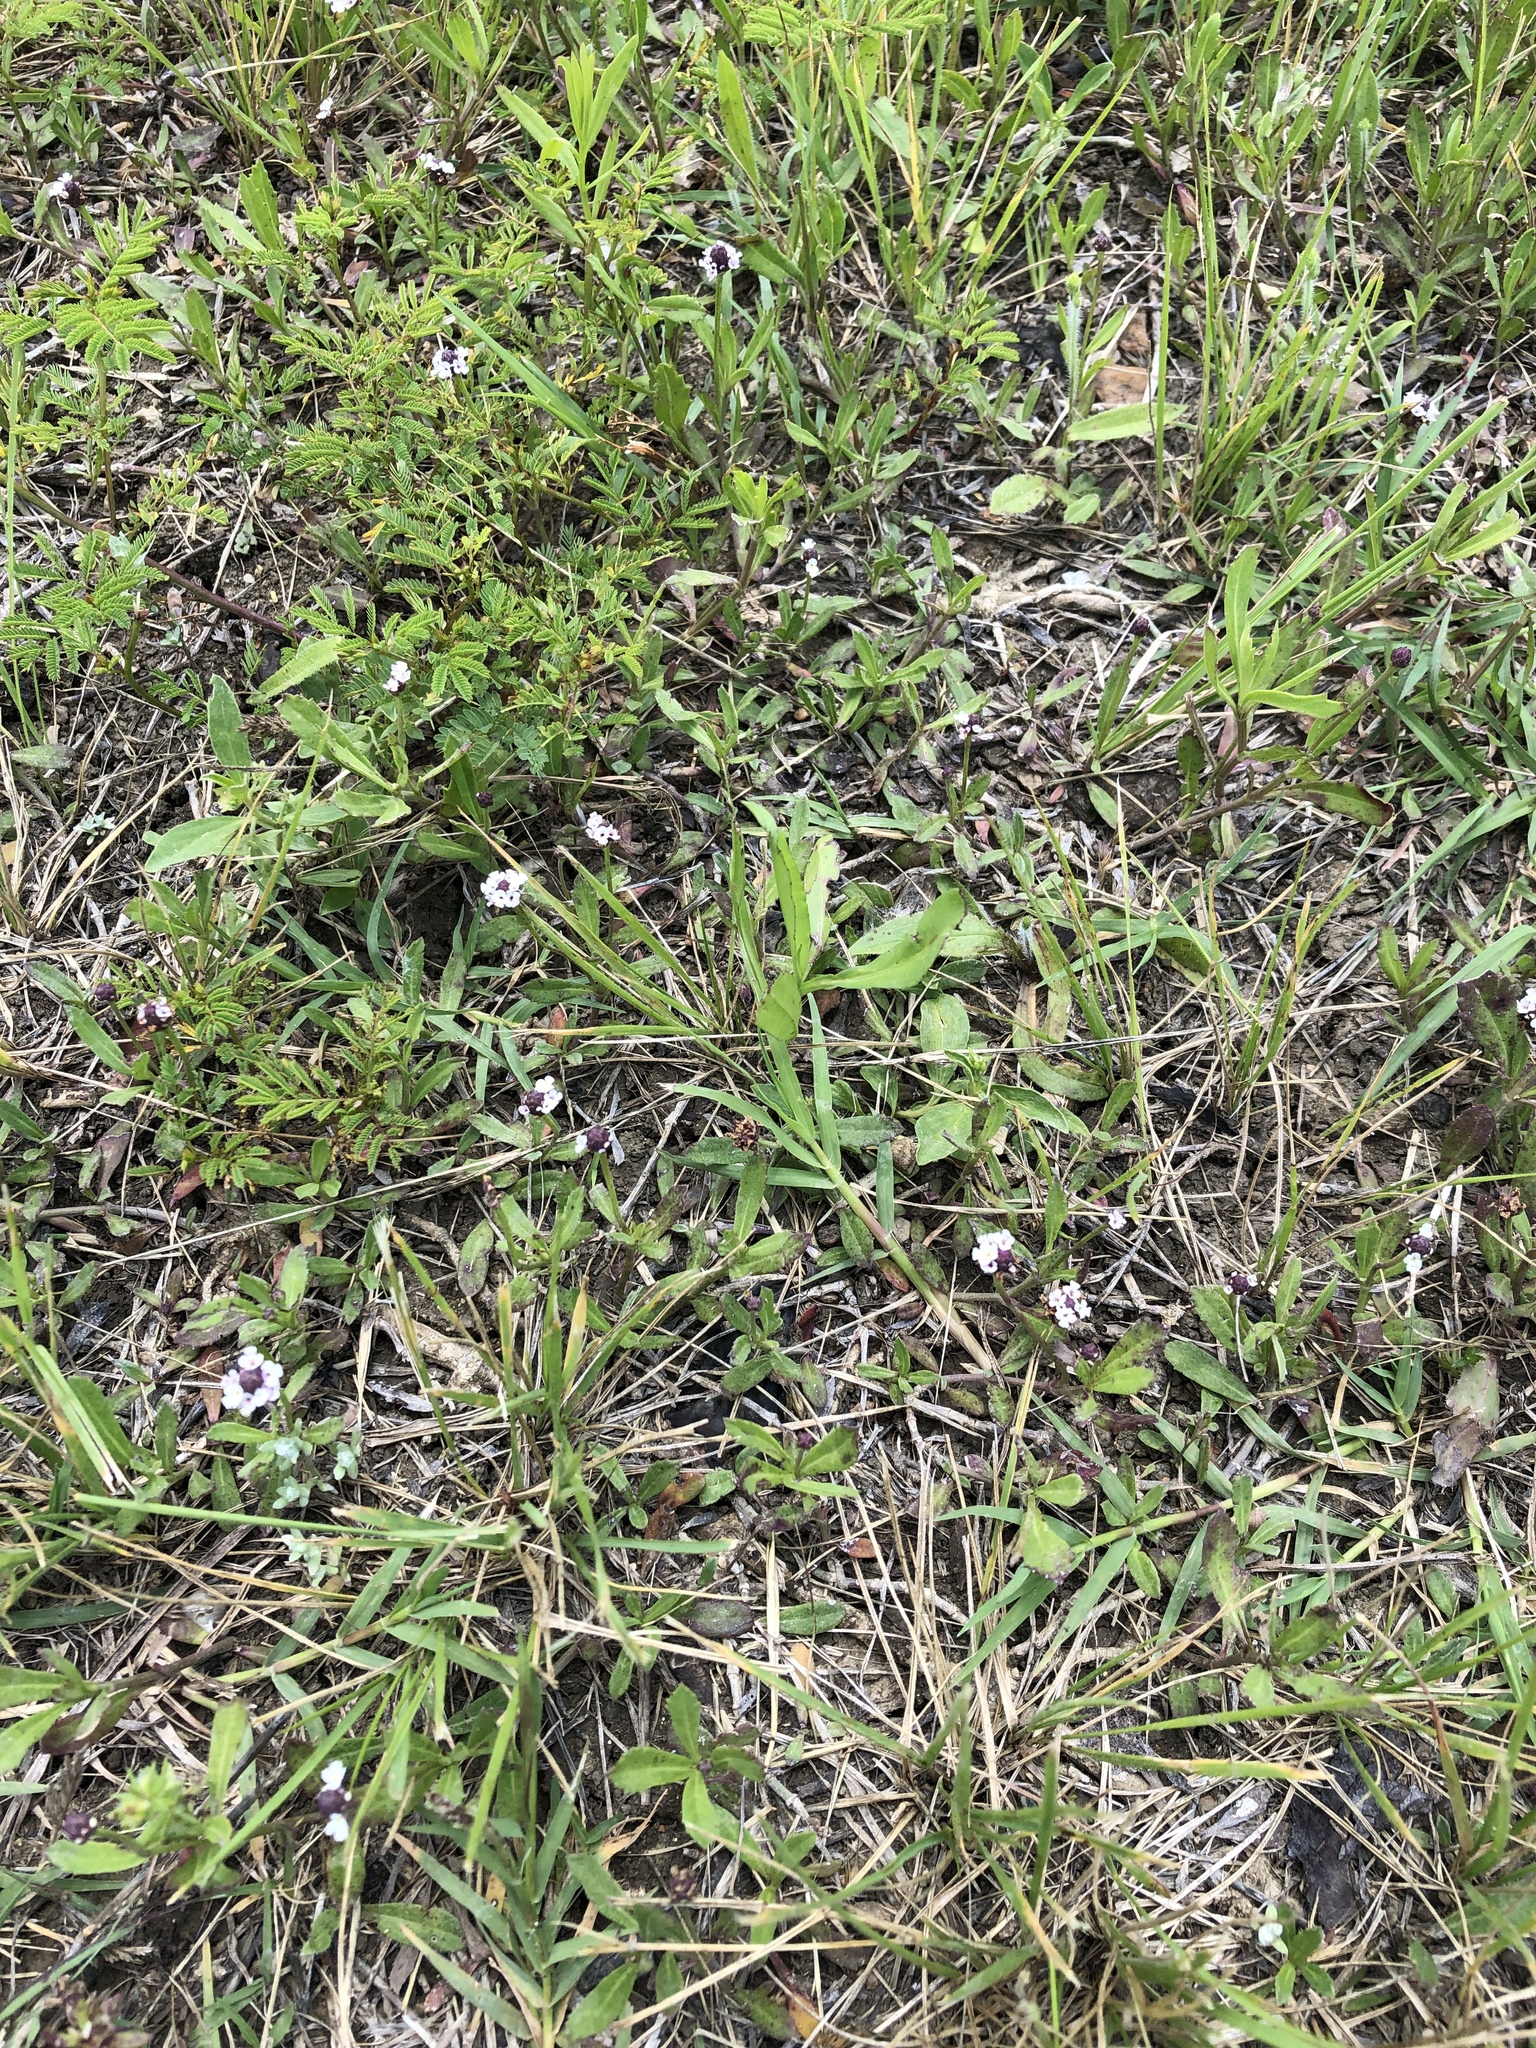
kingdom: Plantae
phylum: Tracheophyta
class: Magnoliopsida
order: Lamiales
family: Verbenaceae
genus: Phyla
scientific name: Phyla nodiflora
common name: Frogfruit
